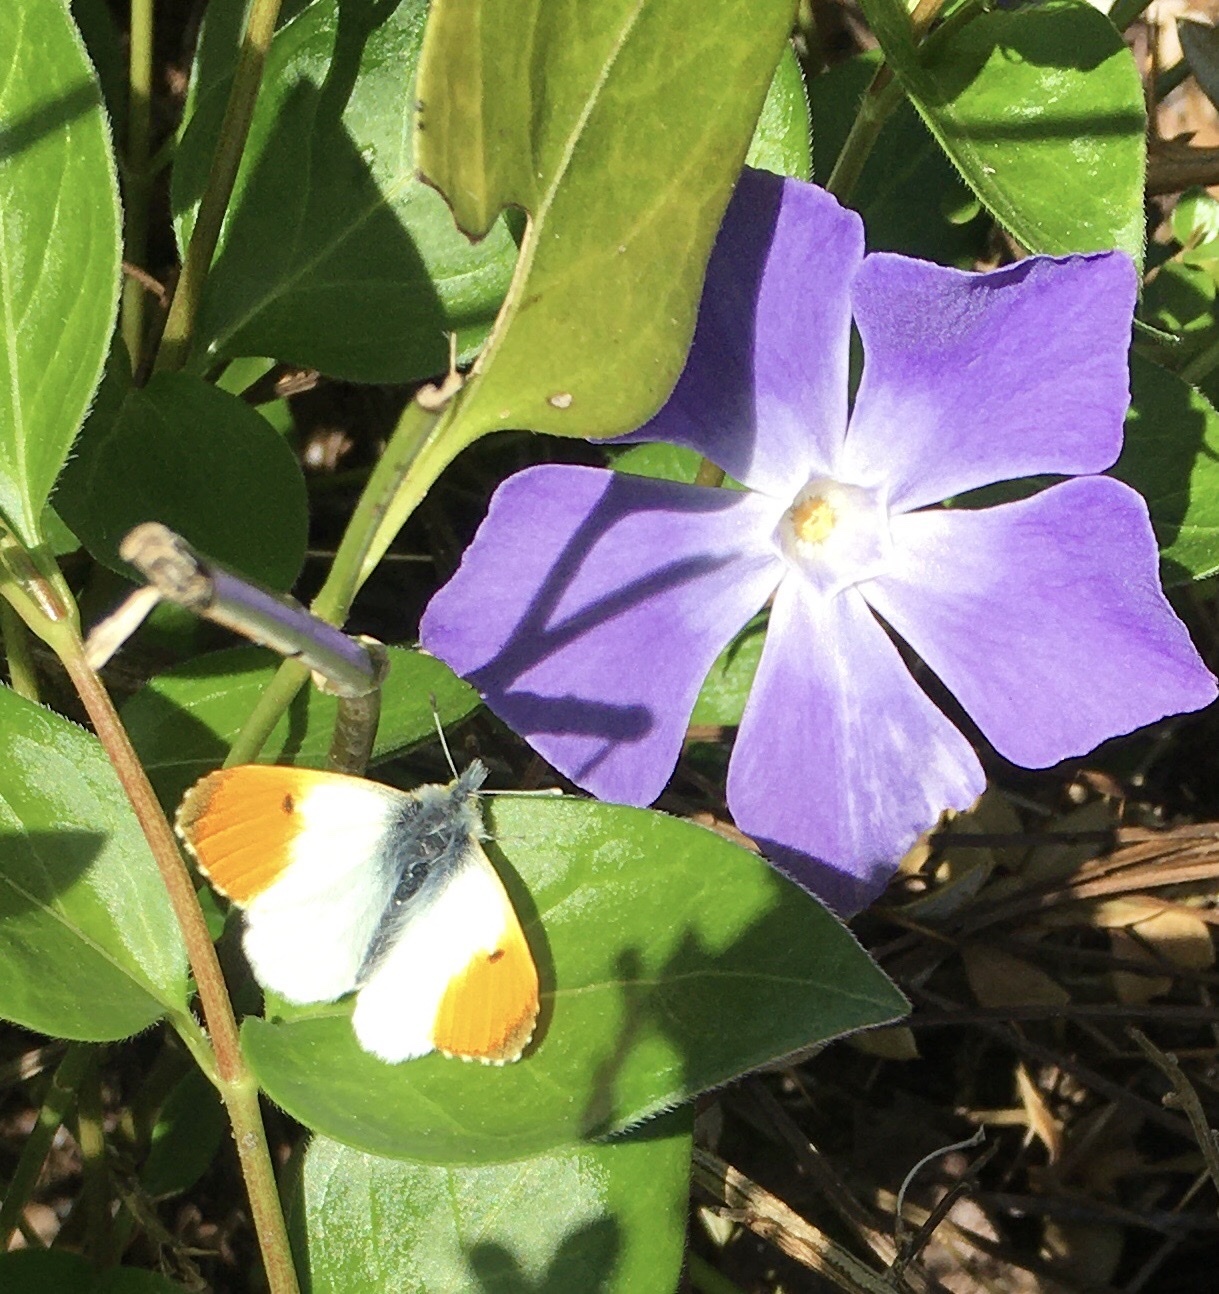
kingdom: Animalia
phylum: Arthropoda
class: Insecta
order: Lepidoptera
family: Pieridae
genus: Anthocharis
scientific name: Anthocharis cardamines
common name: Orange-tip
